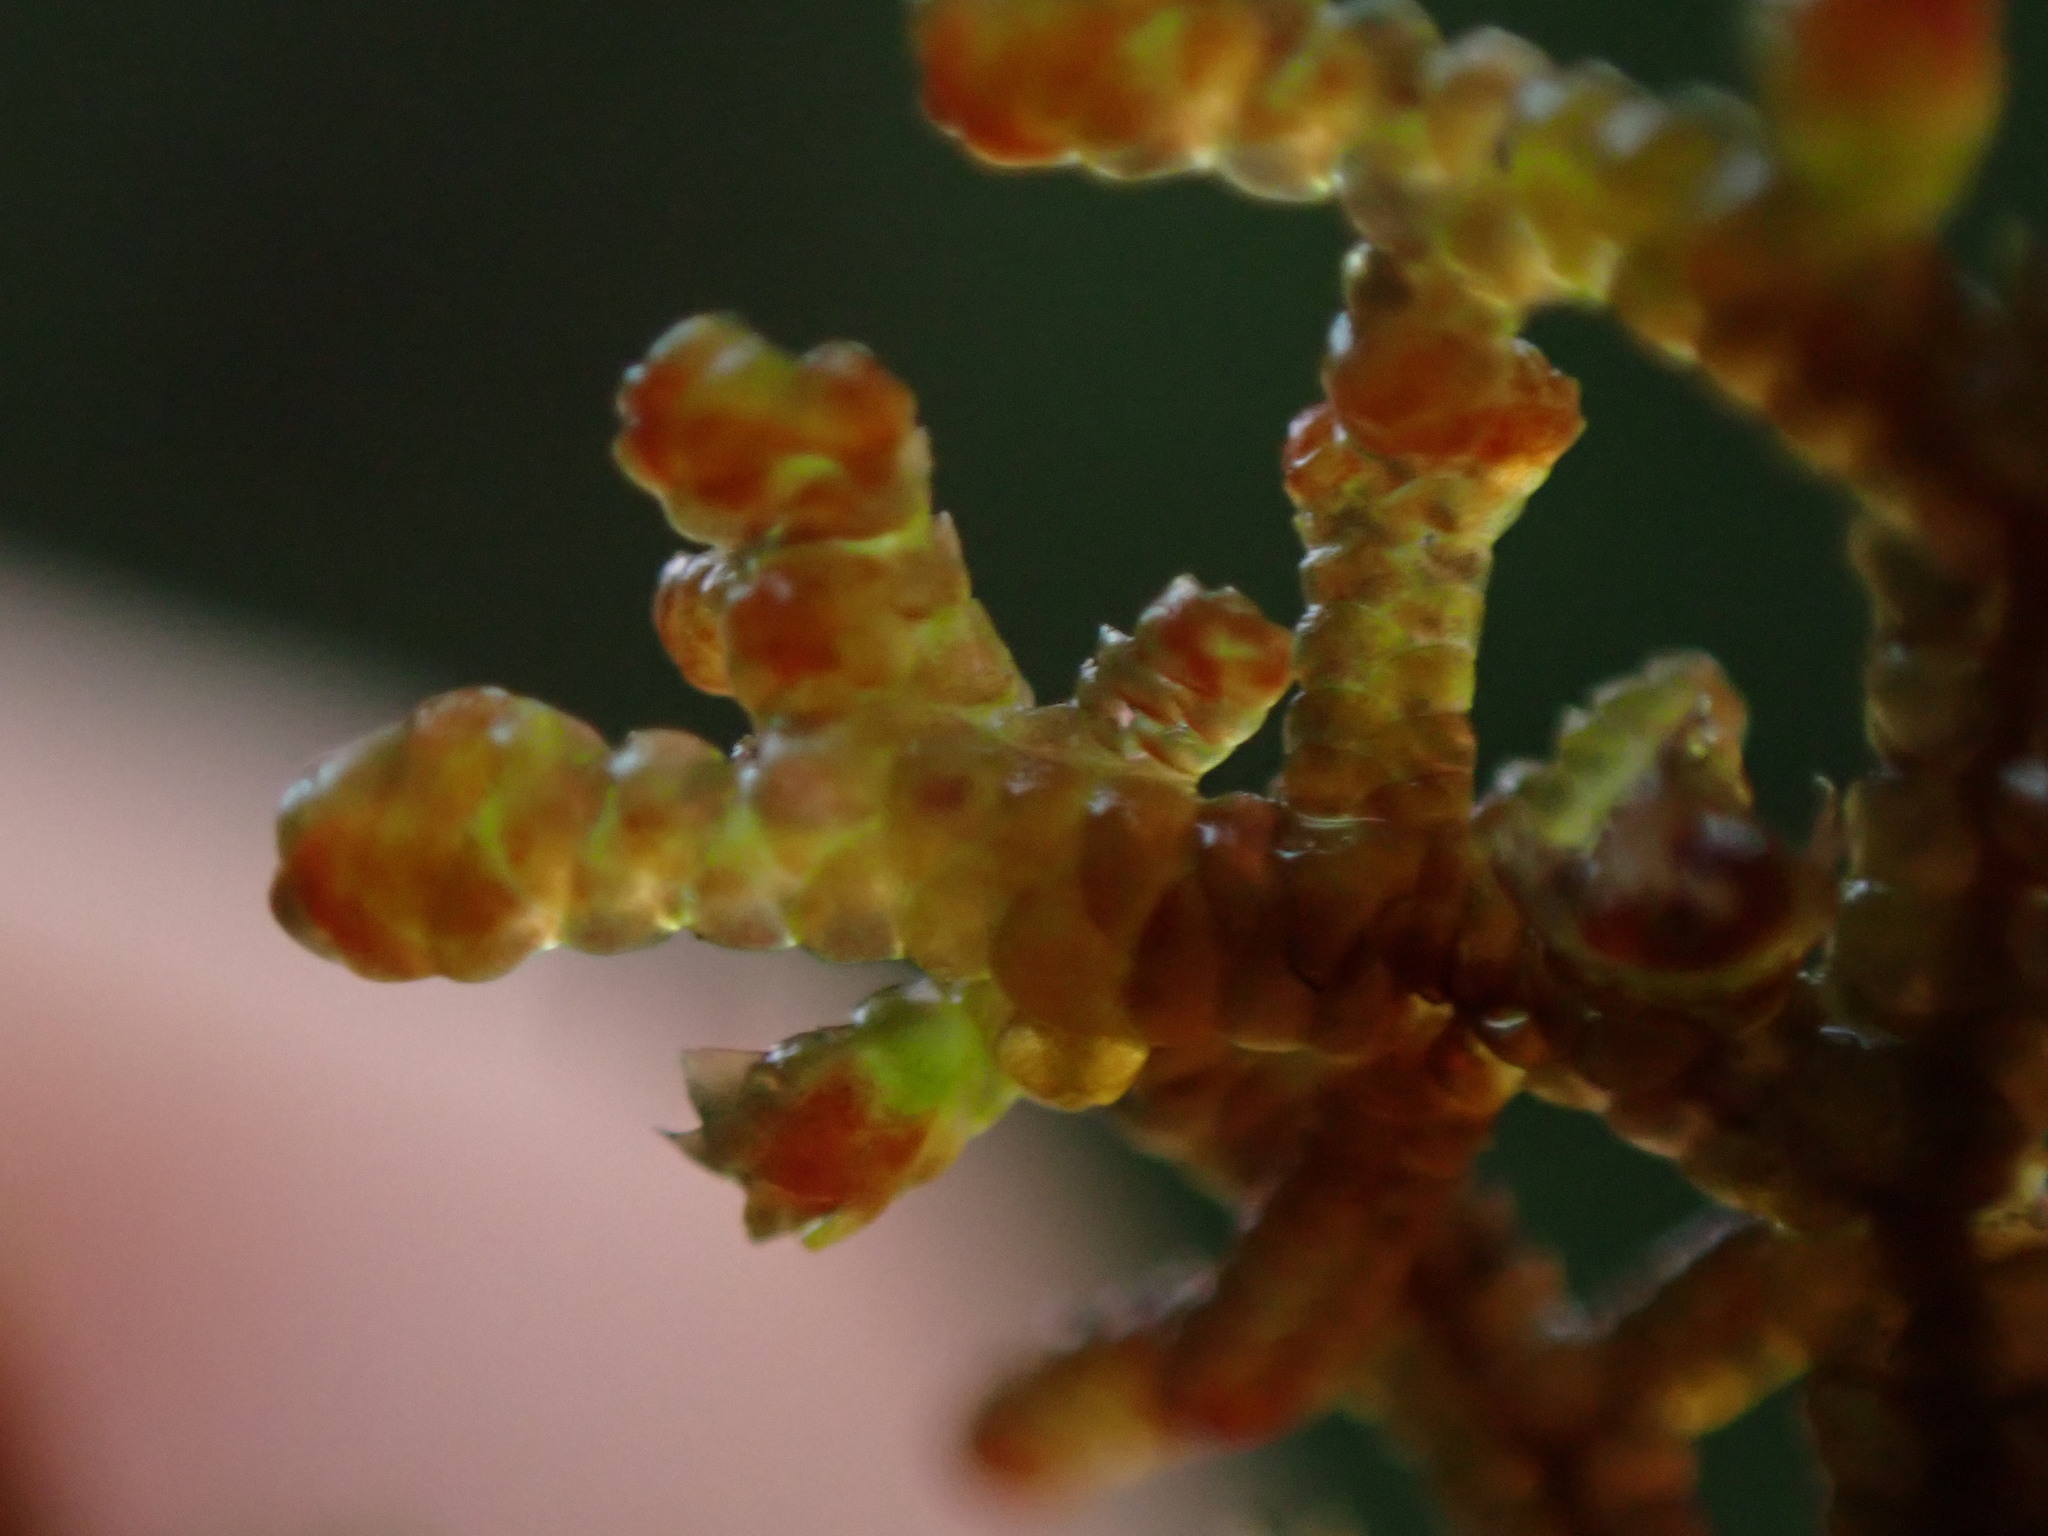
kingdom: Plantae
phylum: Marchantiophyta
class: Jungermanniopsida
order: Porellales
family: Frullaniaceae
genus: Frullania
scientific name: Frullania nisquallensis
